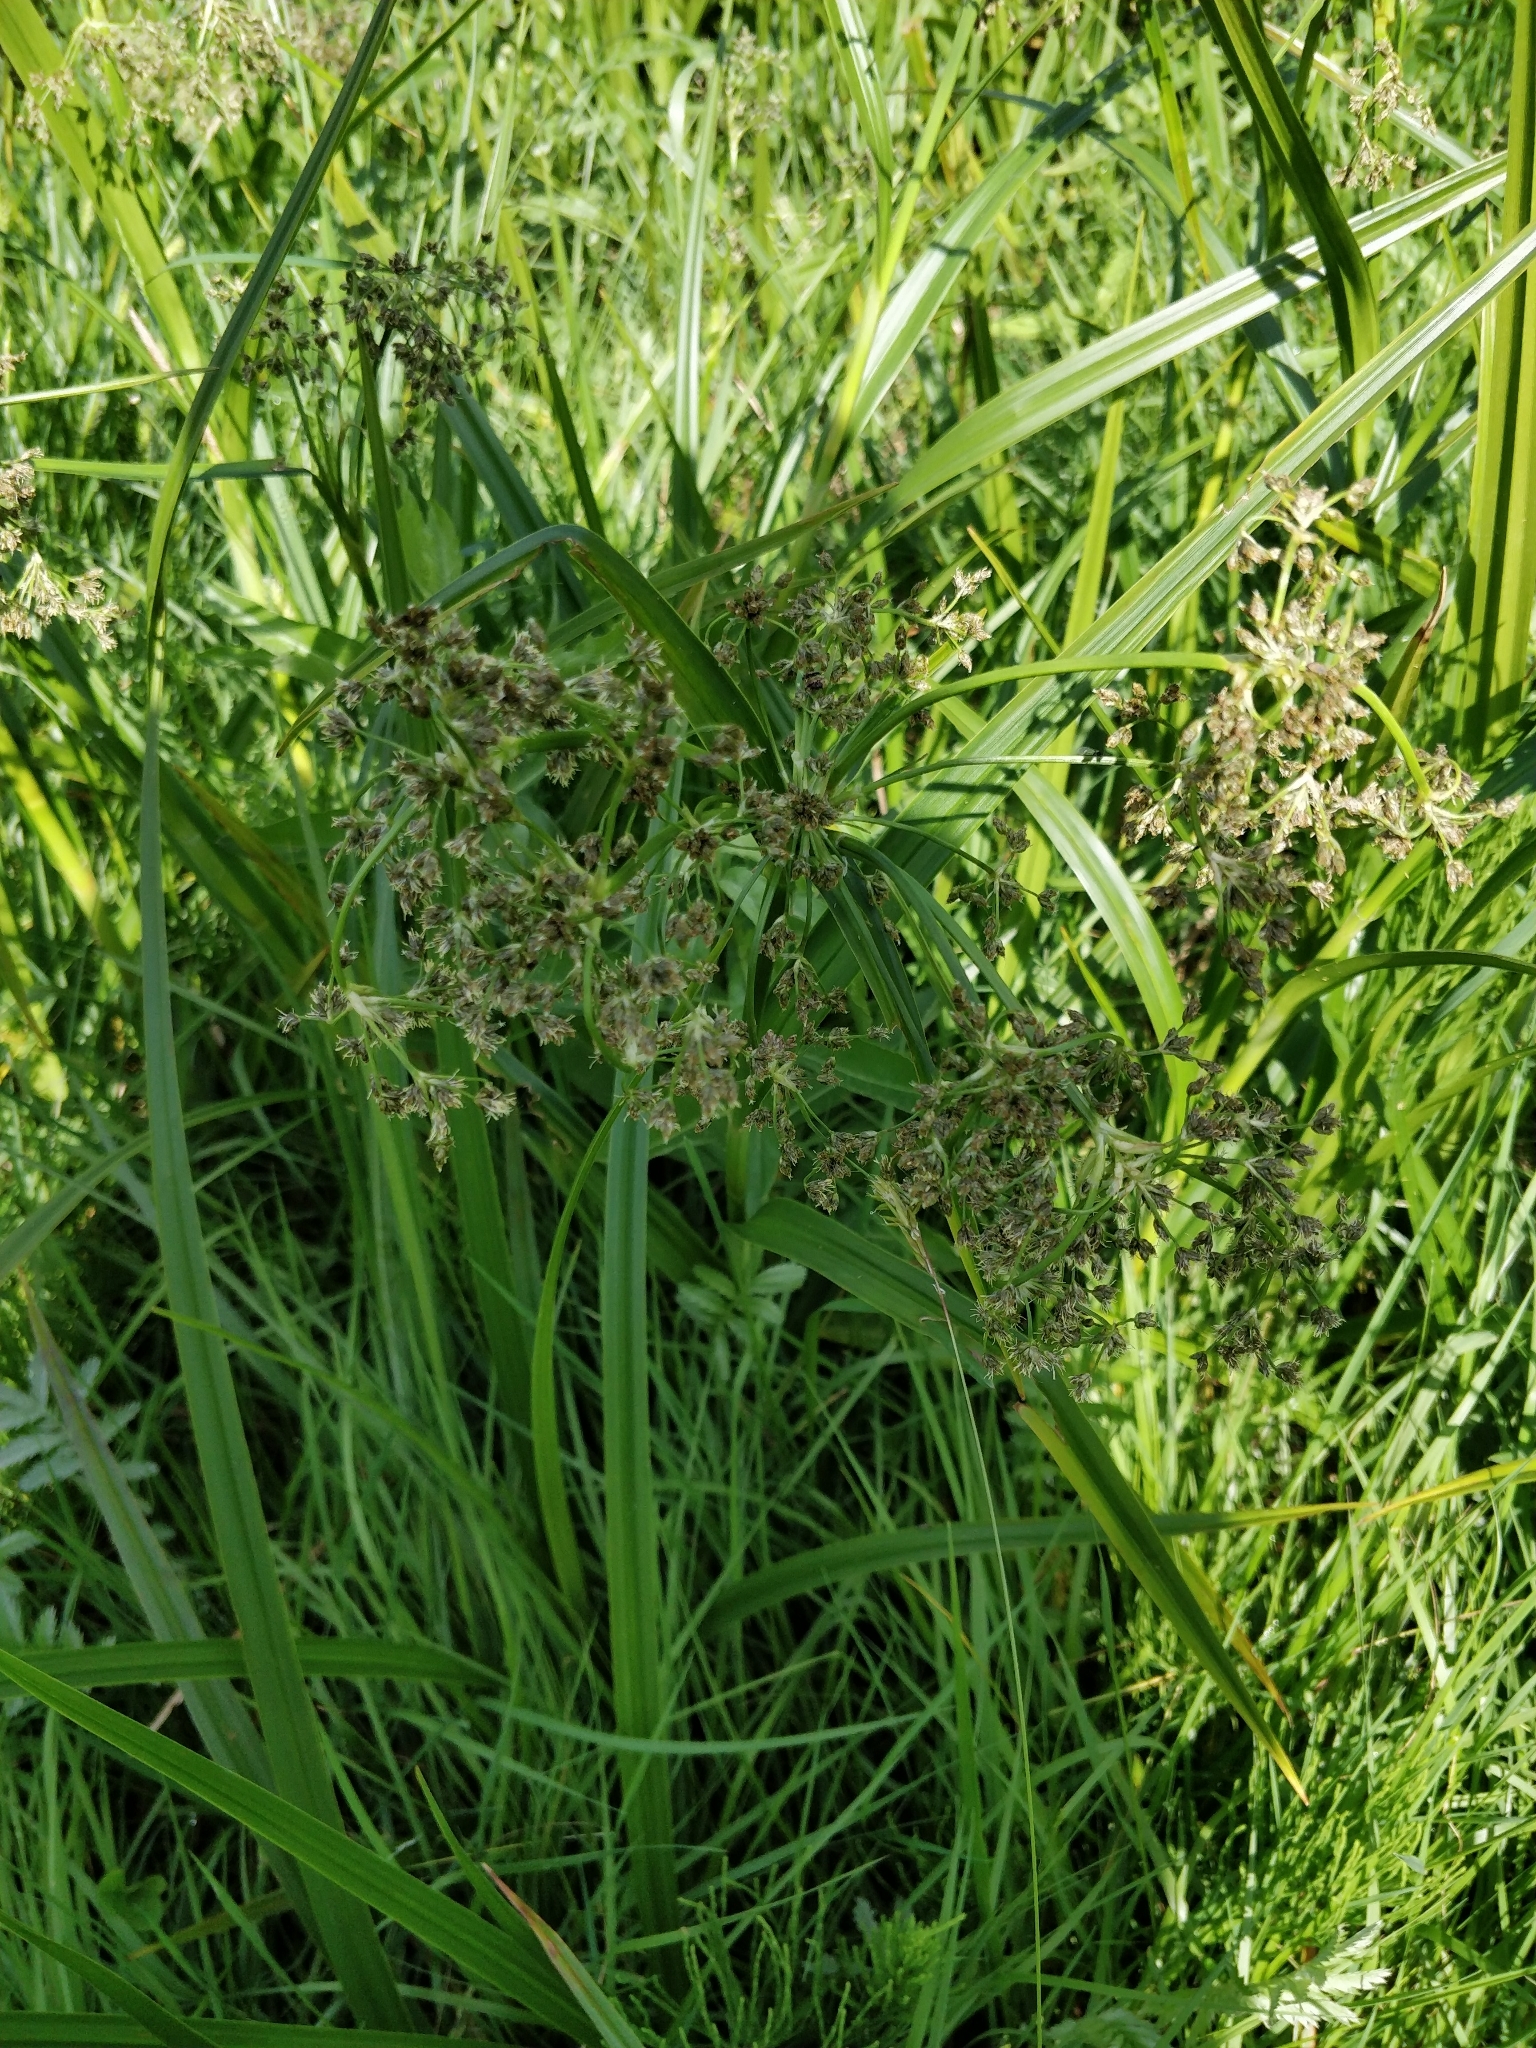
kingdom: Plantae
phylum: Tracheophyta
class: Liliopsida
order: Poales
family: Cyperaceae
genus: Scirpus
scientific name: Scirpus sylvaticus
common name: Wood club-rush
